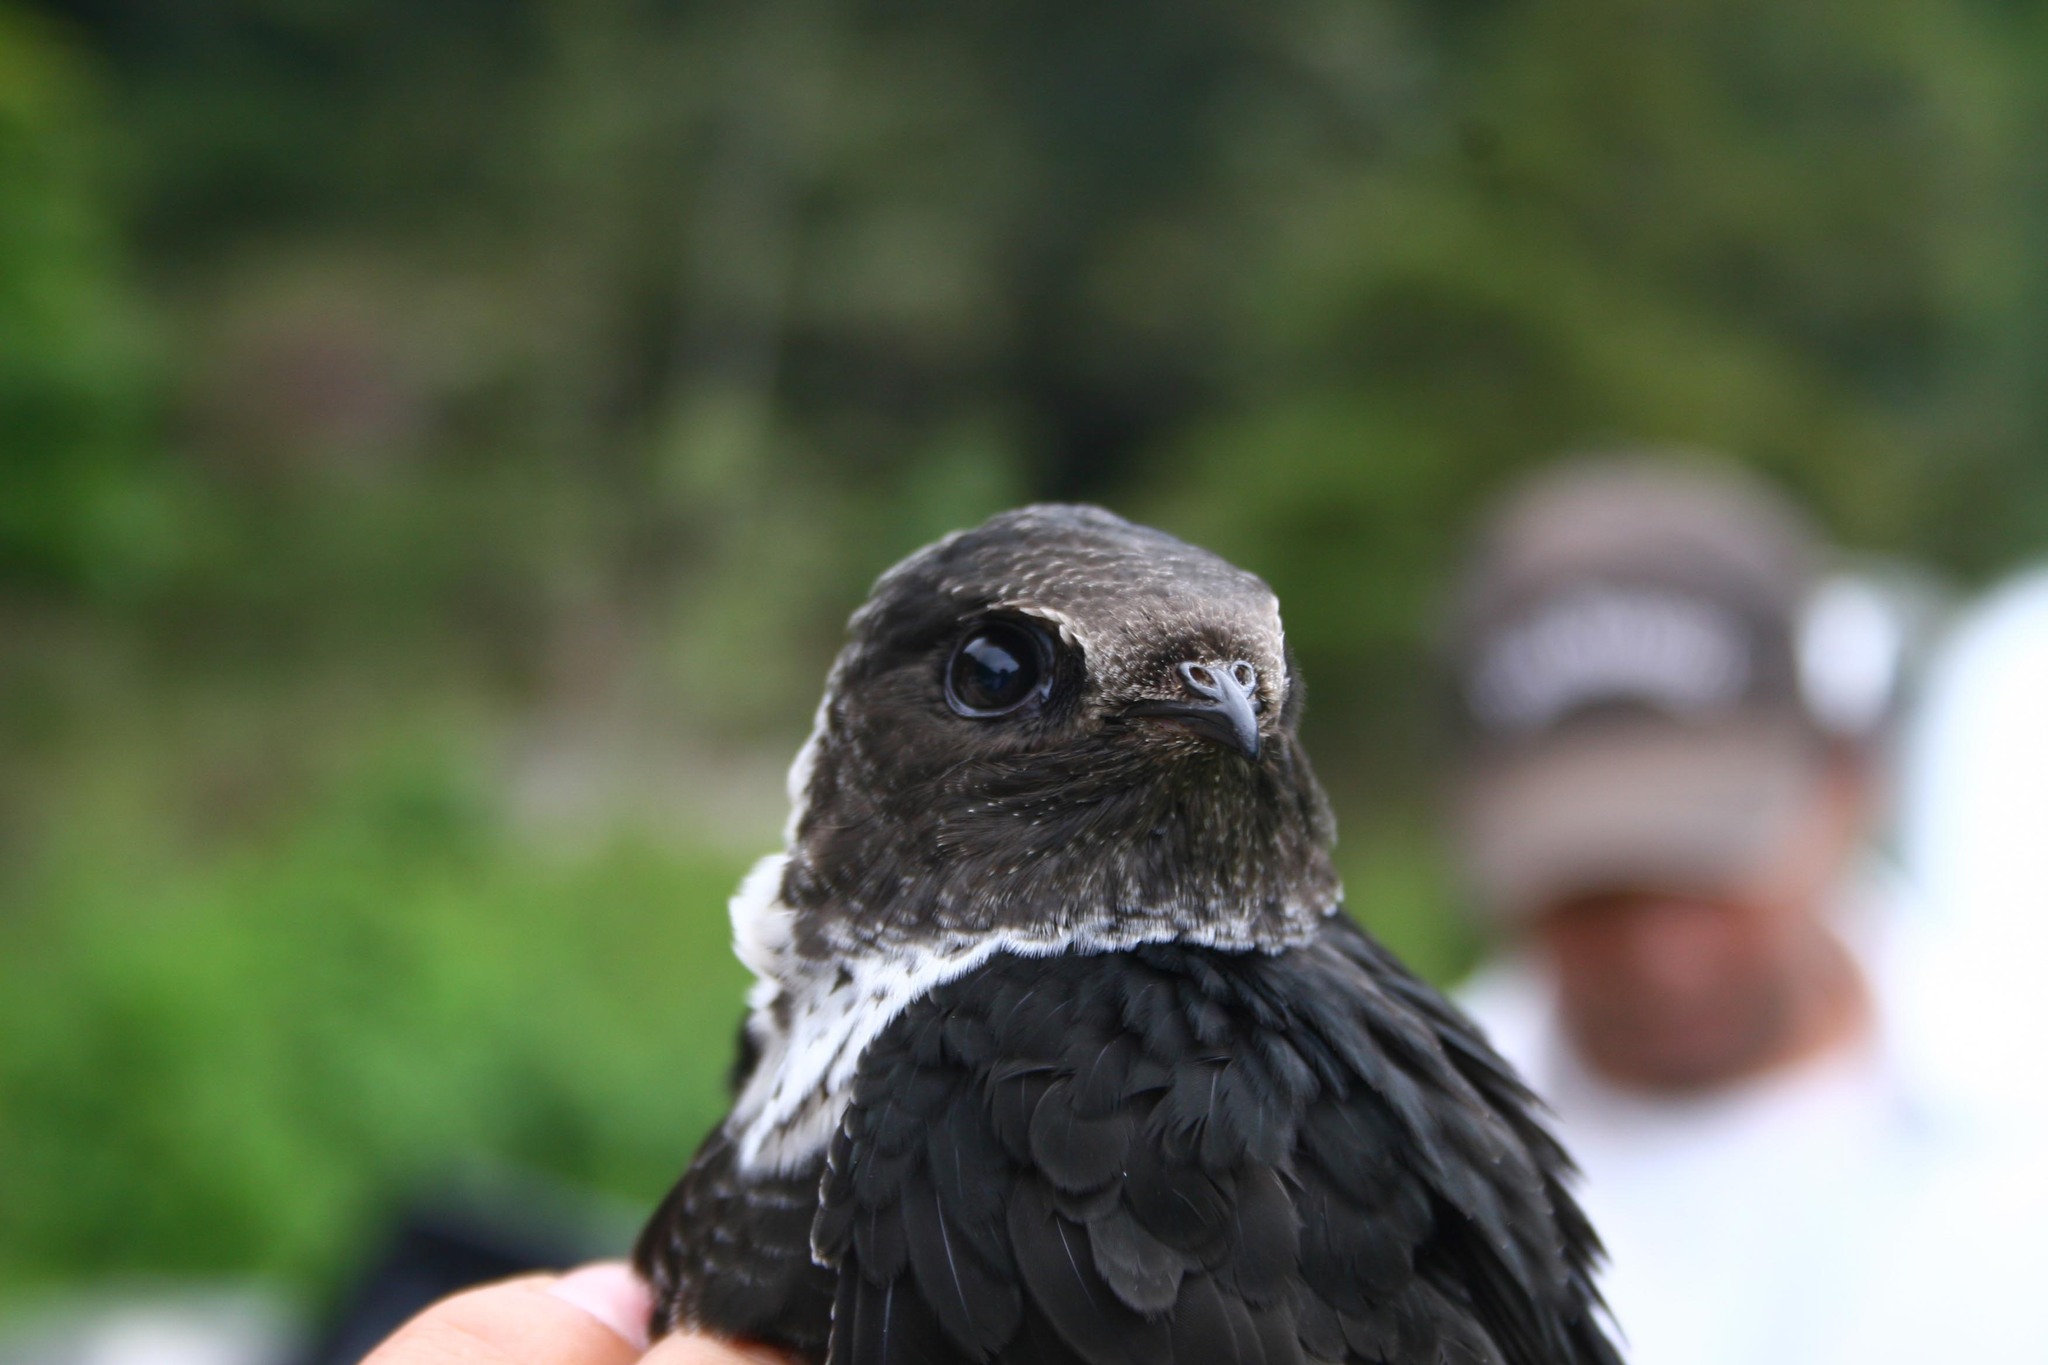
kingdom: Animalia
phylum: Chordata
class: Aves
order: Apodiformes
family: Apodidae
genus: Streptoprocne
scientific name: Streptoprocne zonaris
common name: White-collared swift
